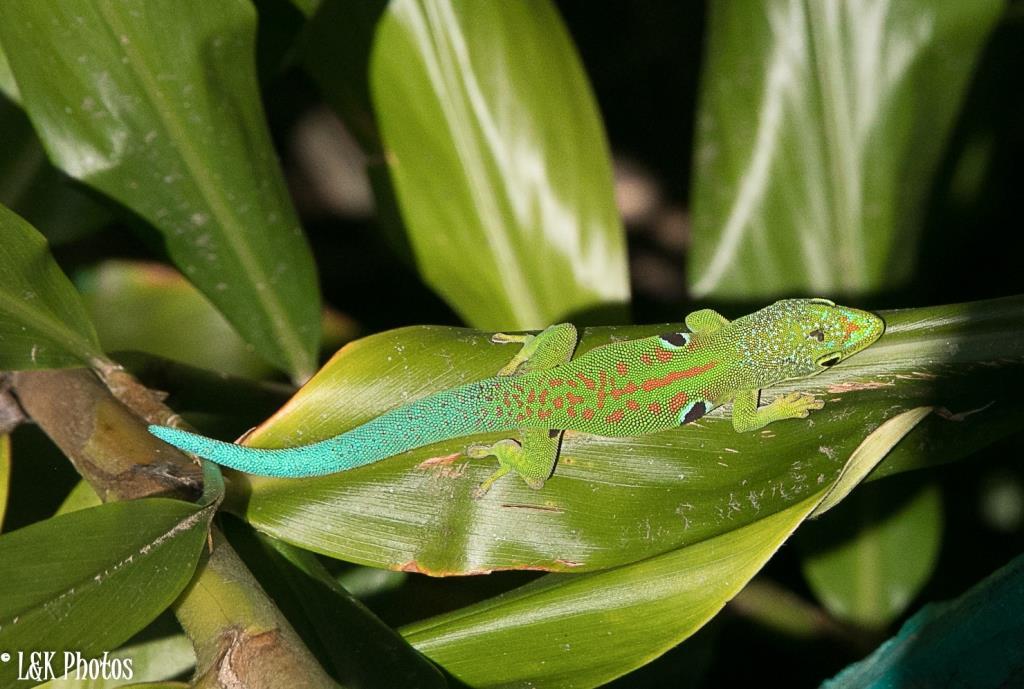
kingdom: Animalia
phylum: Chordata
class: Squamata
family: Gekkonidae
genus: Phelsuma
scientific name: Phelsuma quadriocellata
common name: Peacock day gecko
